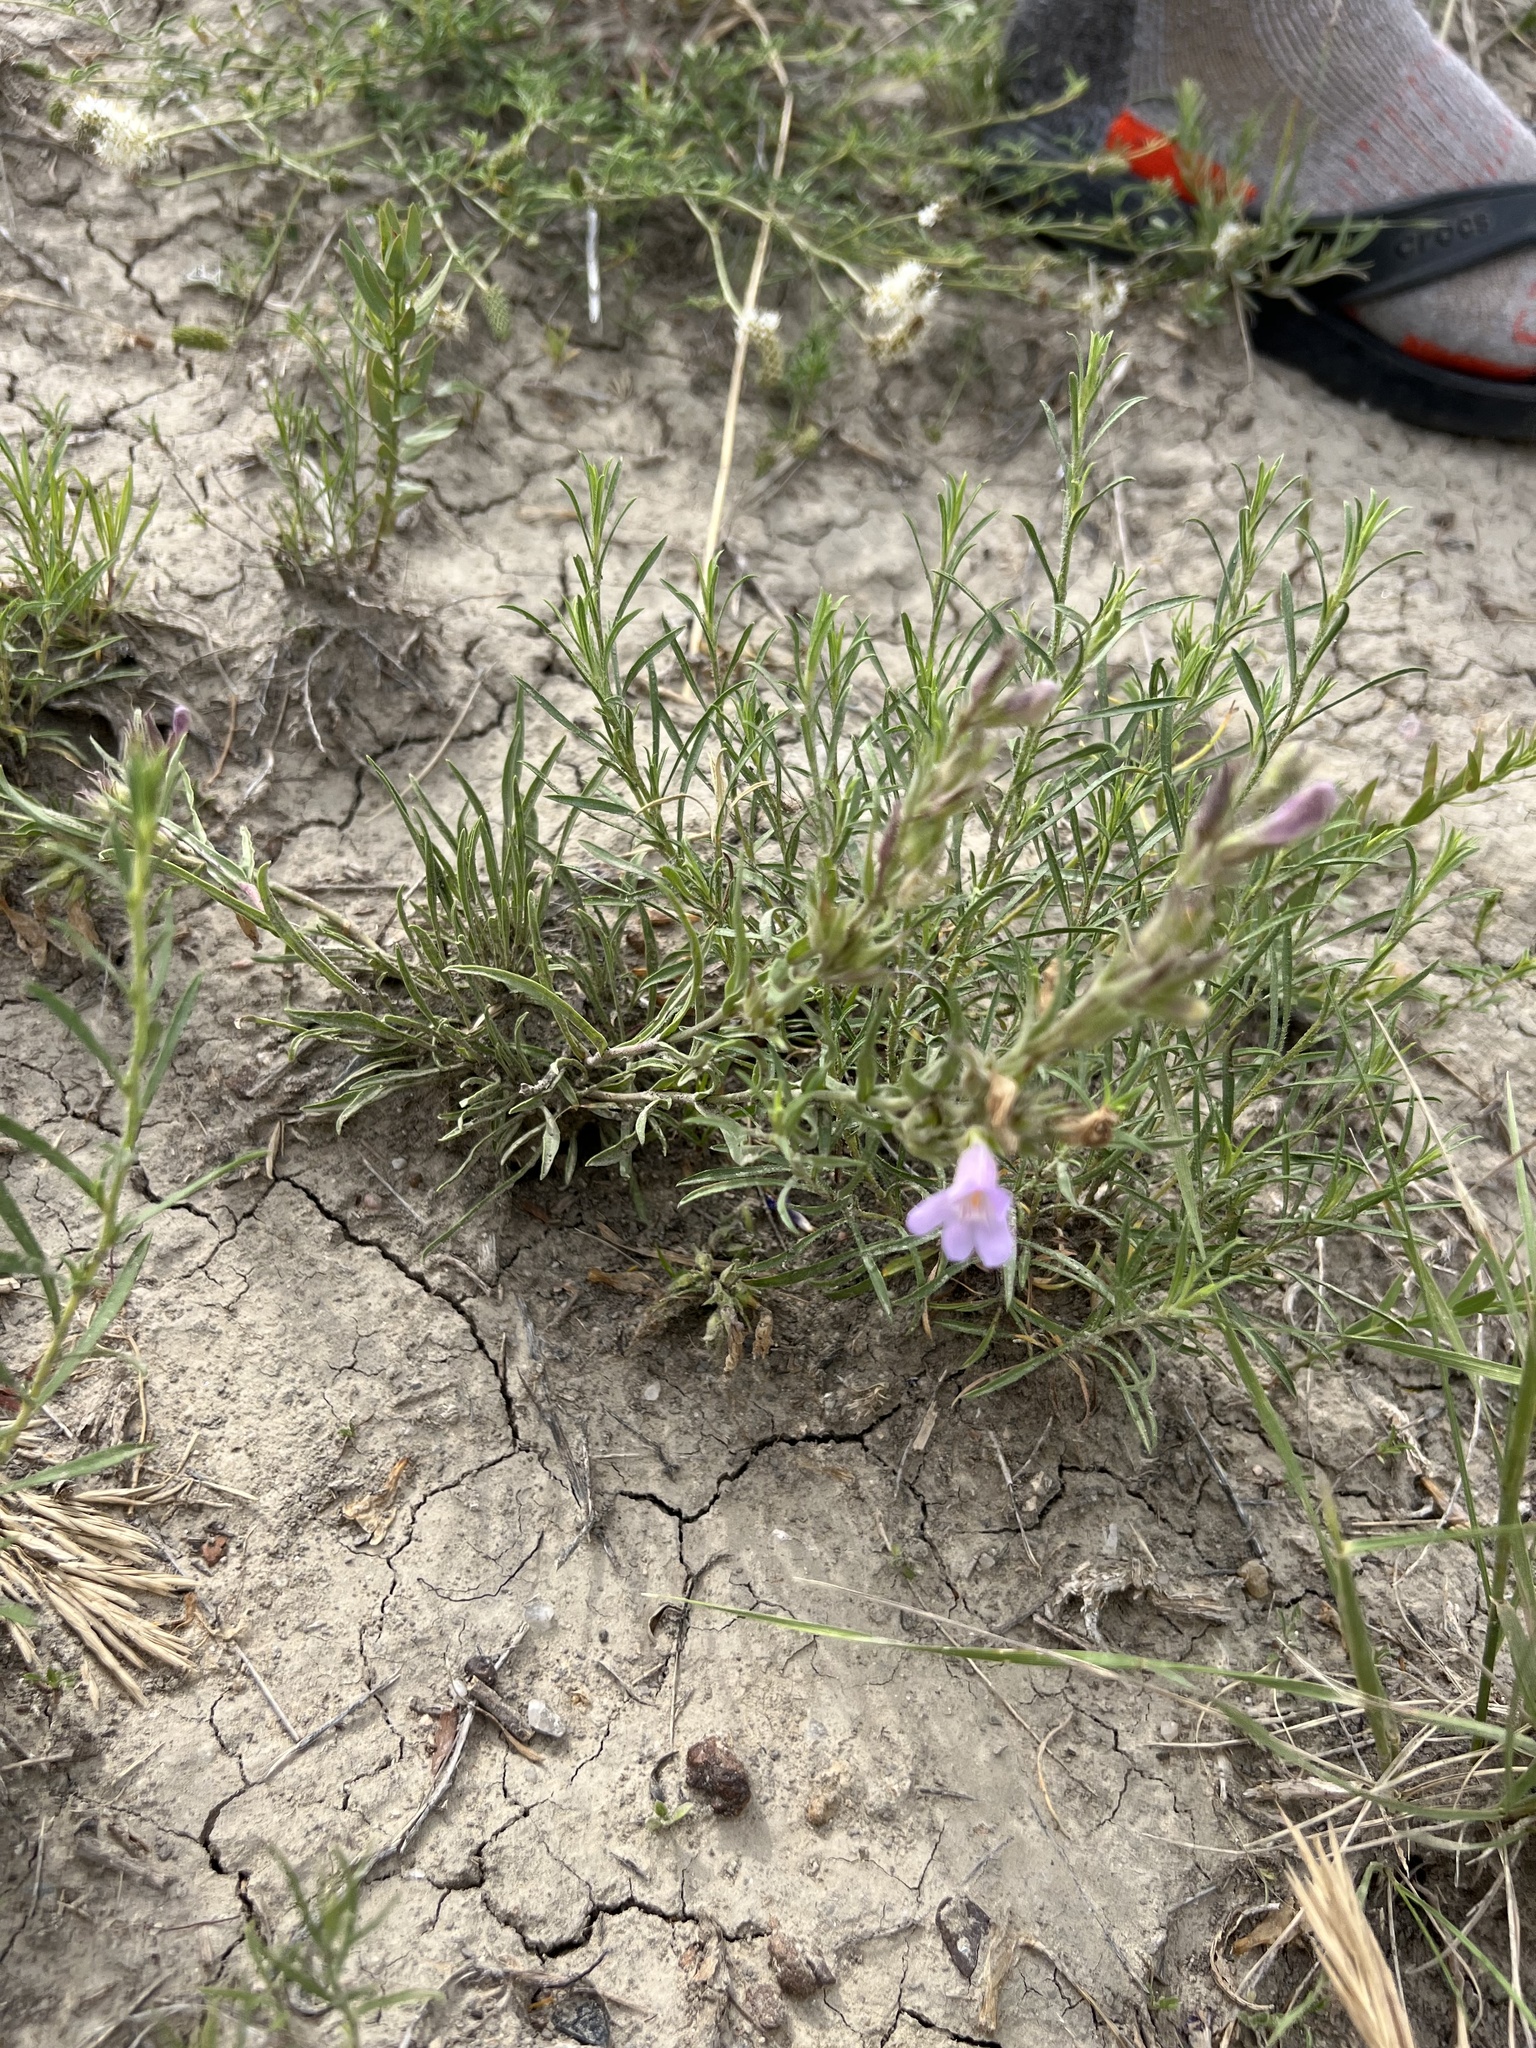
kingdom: Plantae
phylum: Tracheophyta
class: Magnoliopsida
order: Lamiales
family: Plantaginaceae
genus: Penstemon
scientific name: Penstemon auriberbis
